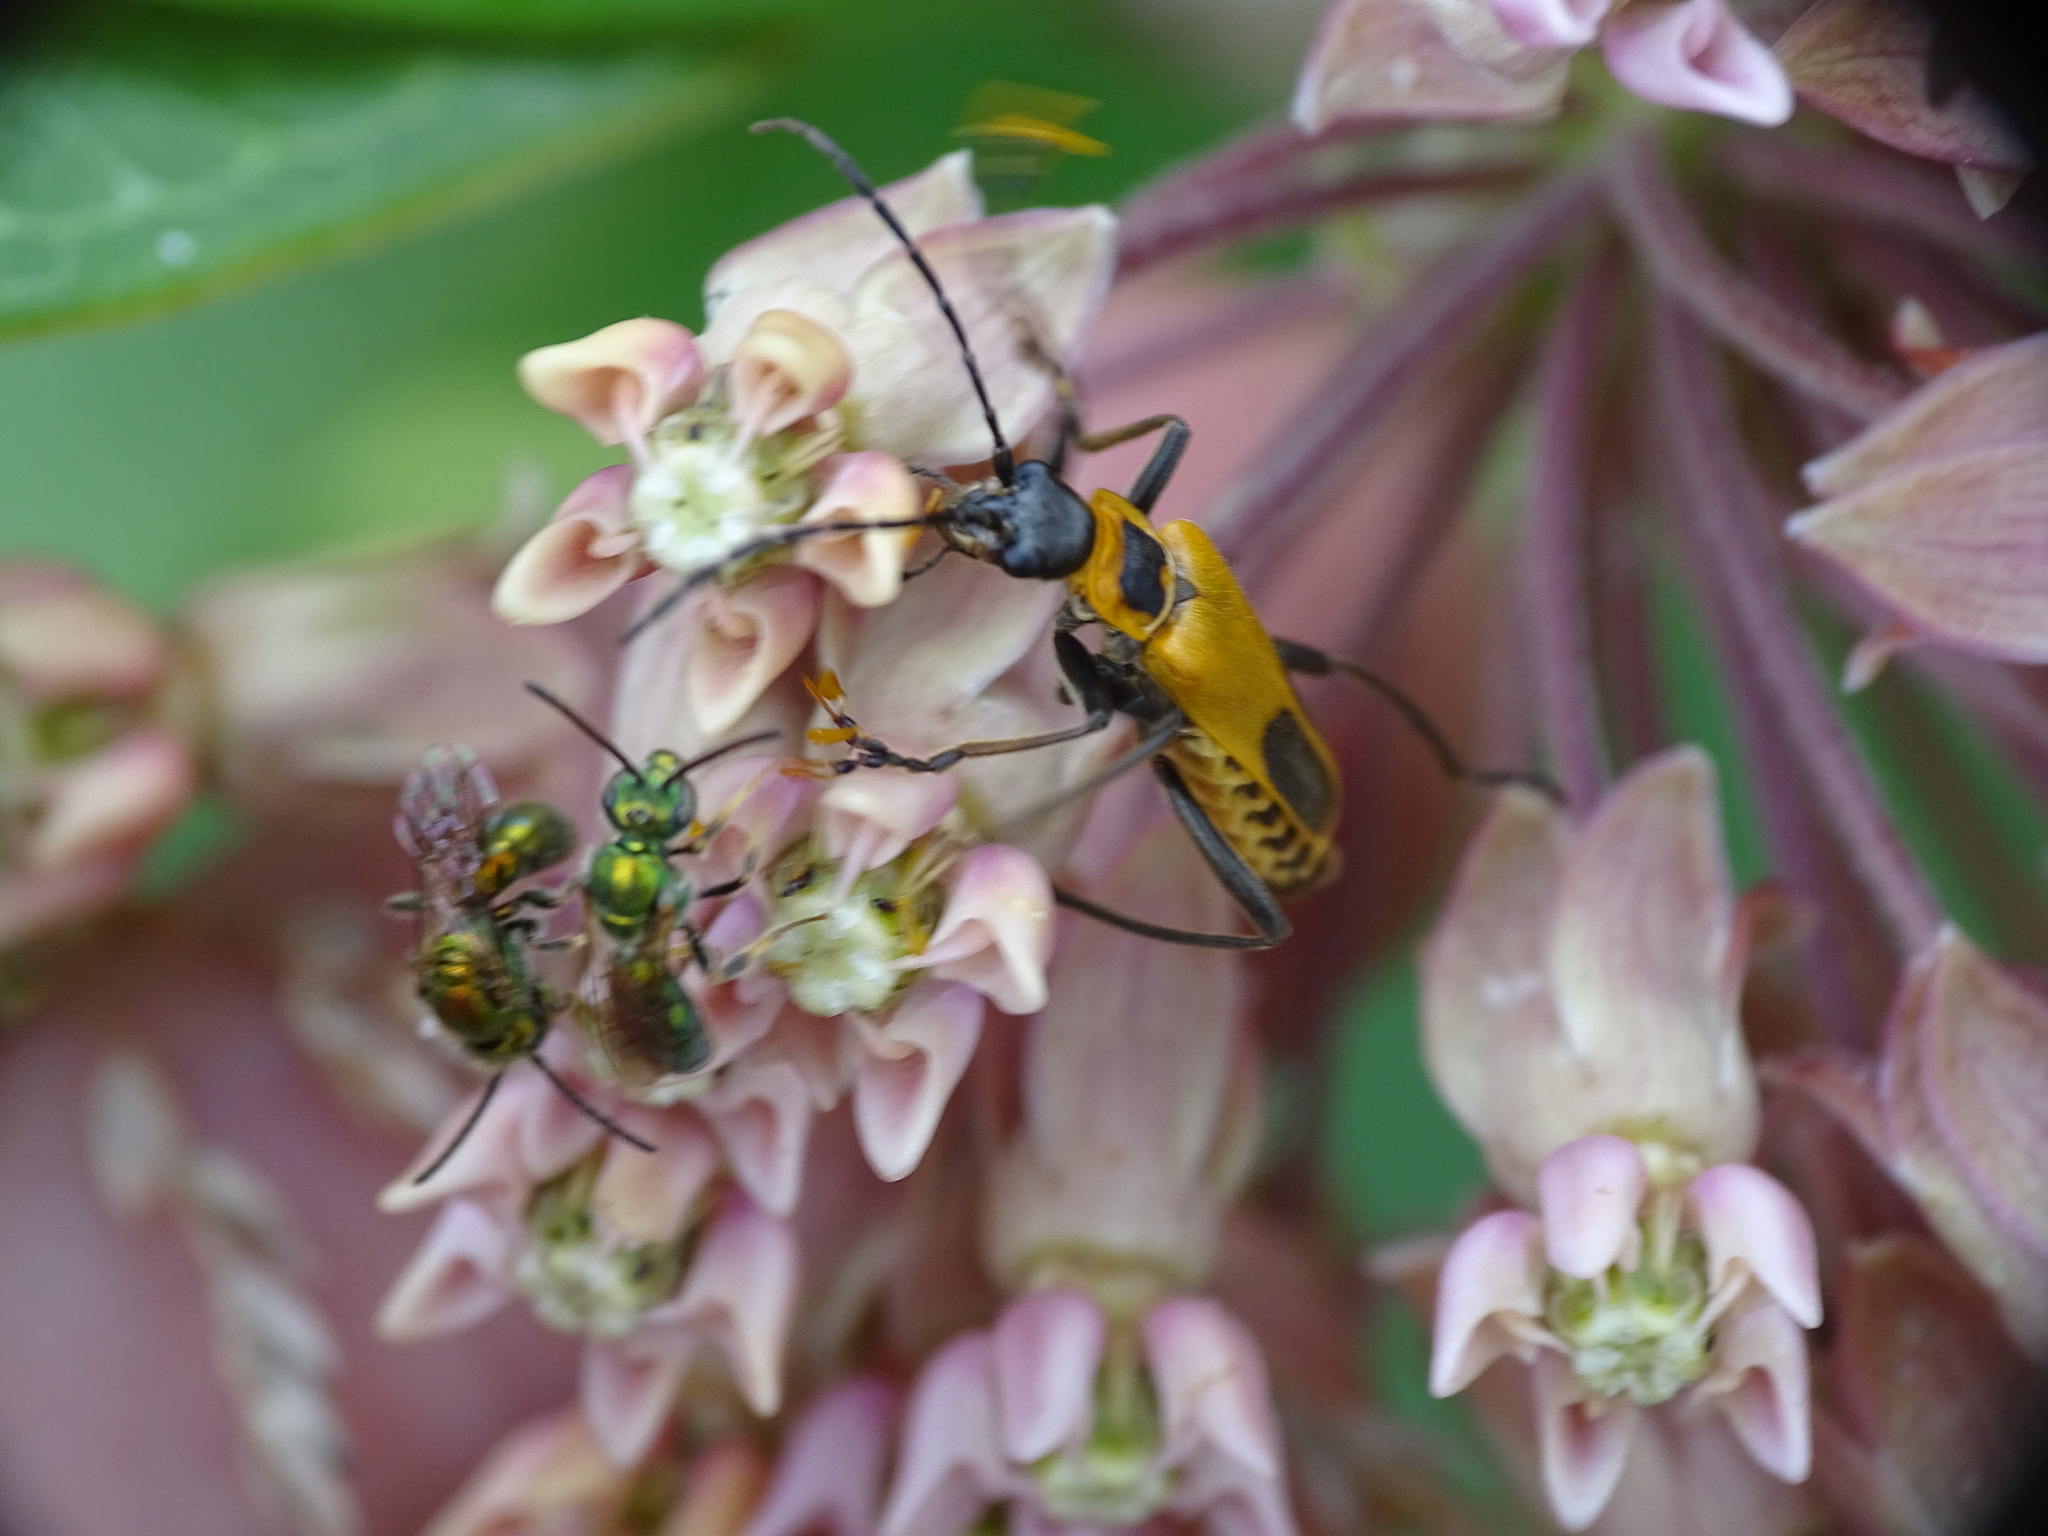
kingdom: Animalia
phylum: Arthropoda
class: Insecta
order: Coleoptera
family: Cantharidae
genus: Chauliognathus
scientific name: Chauliognathus pensylvanicus
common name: Goldenrod soldier beetle
